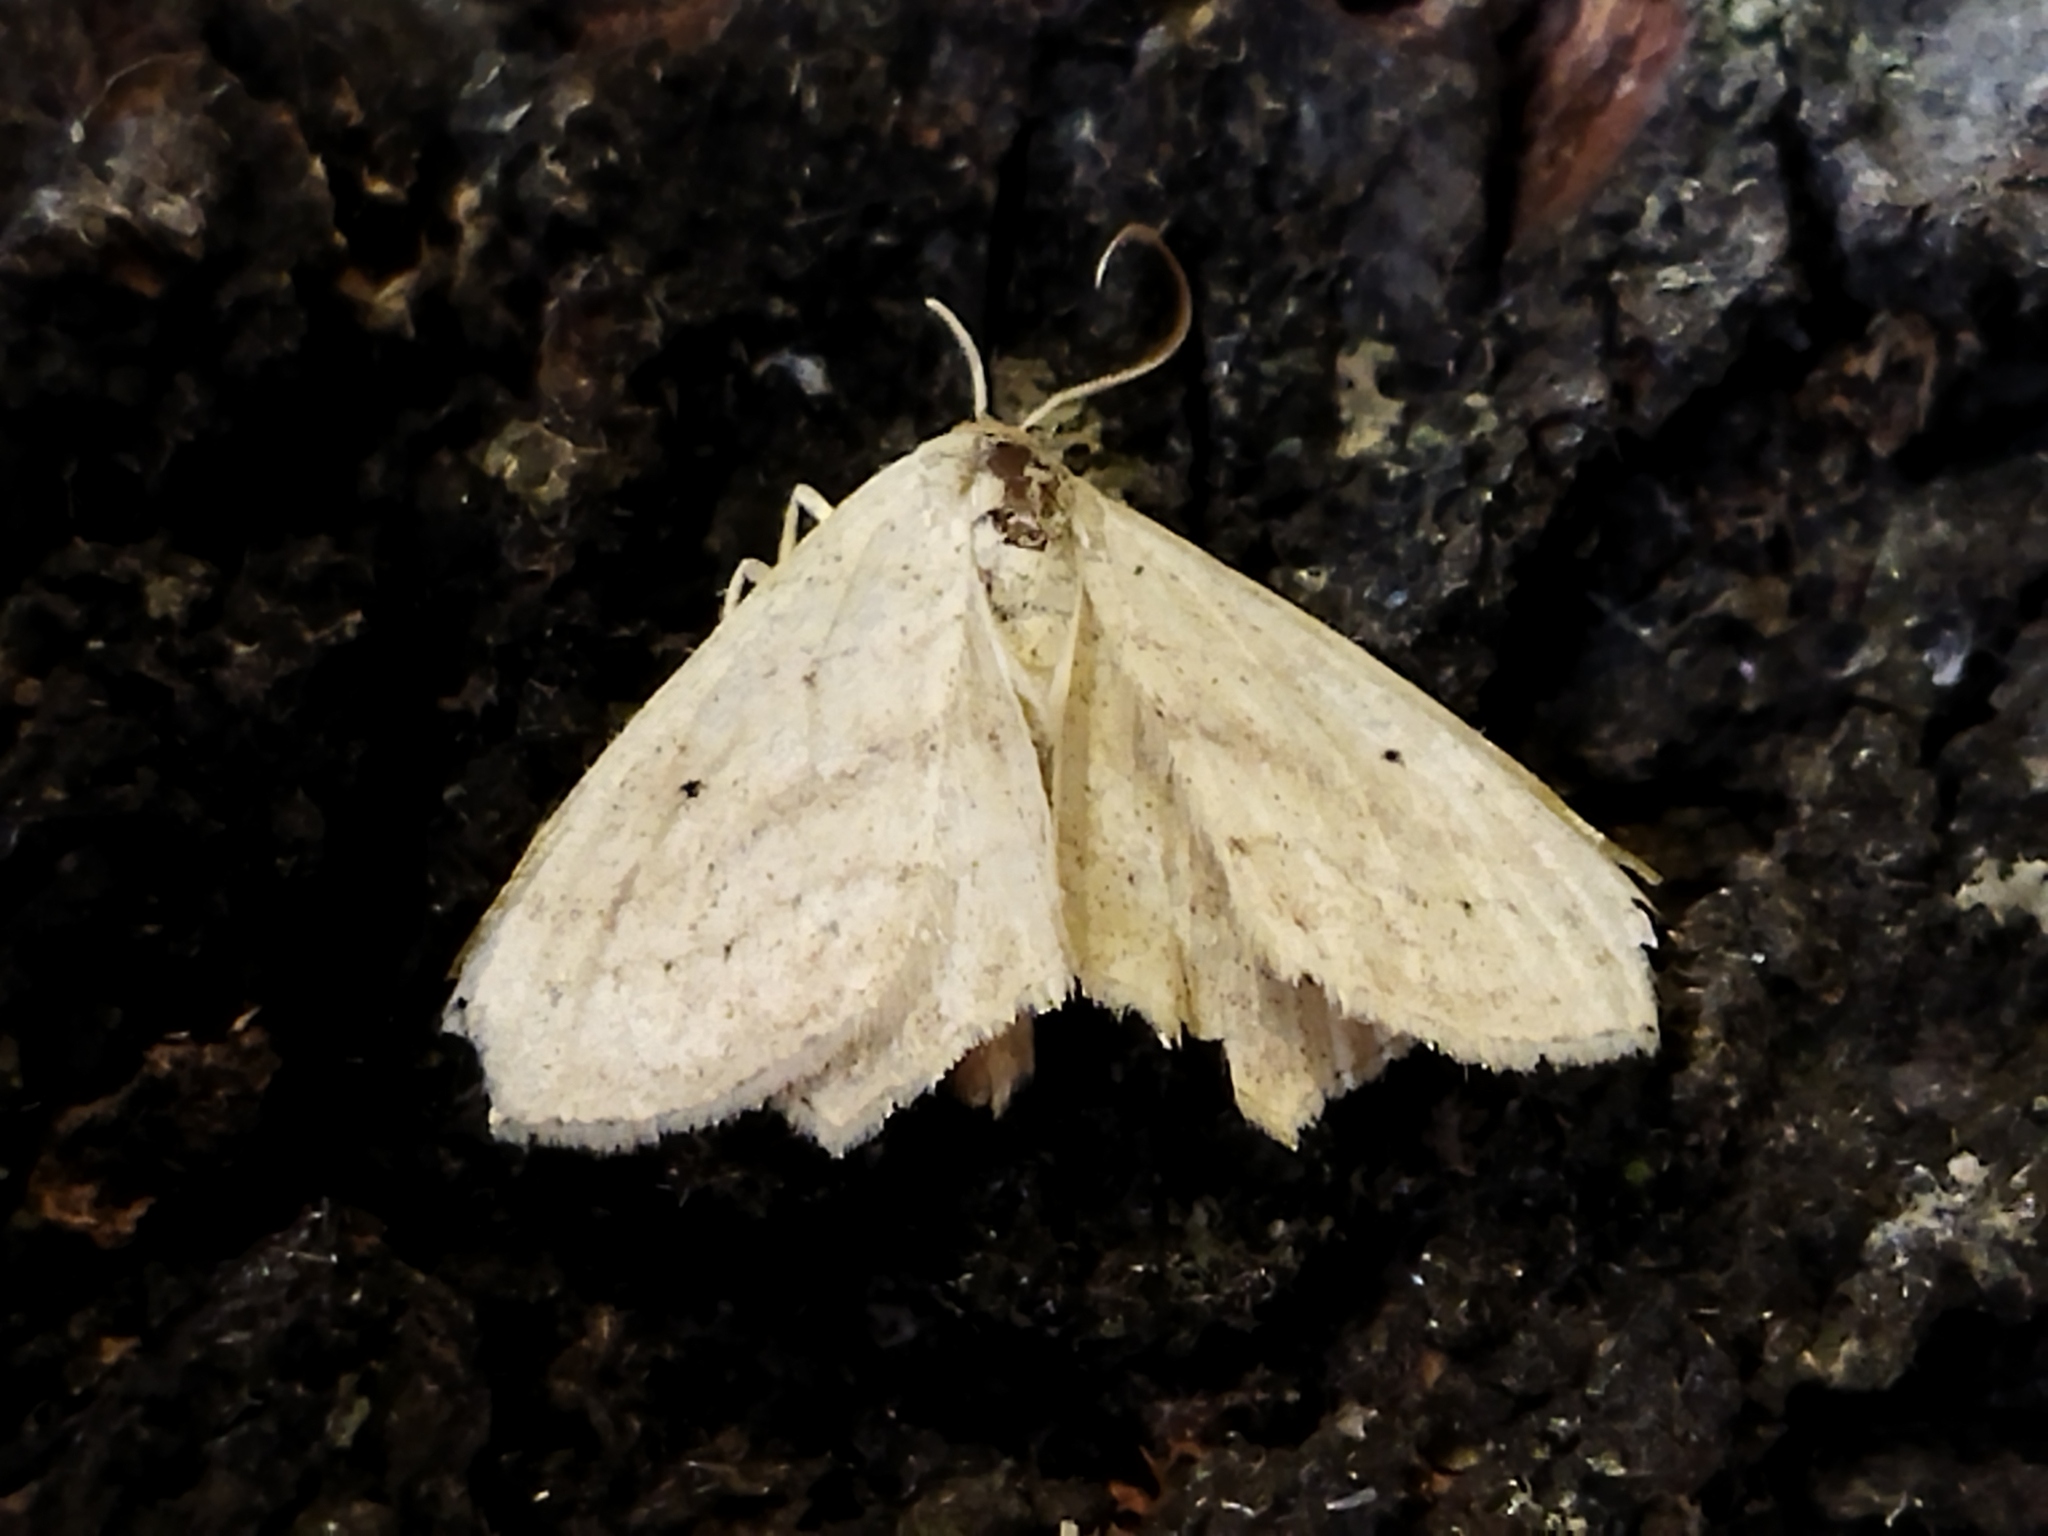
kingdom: Animalia
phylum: Arthropoda
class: Insecta
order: Lepidoptera
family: Geometridae
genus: Scopula
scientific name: Scopula flaccidaria
